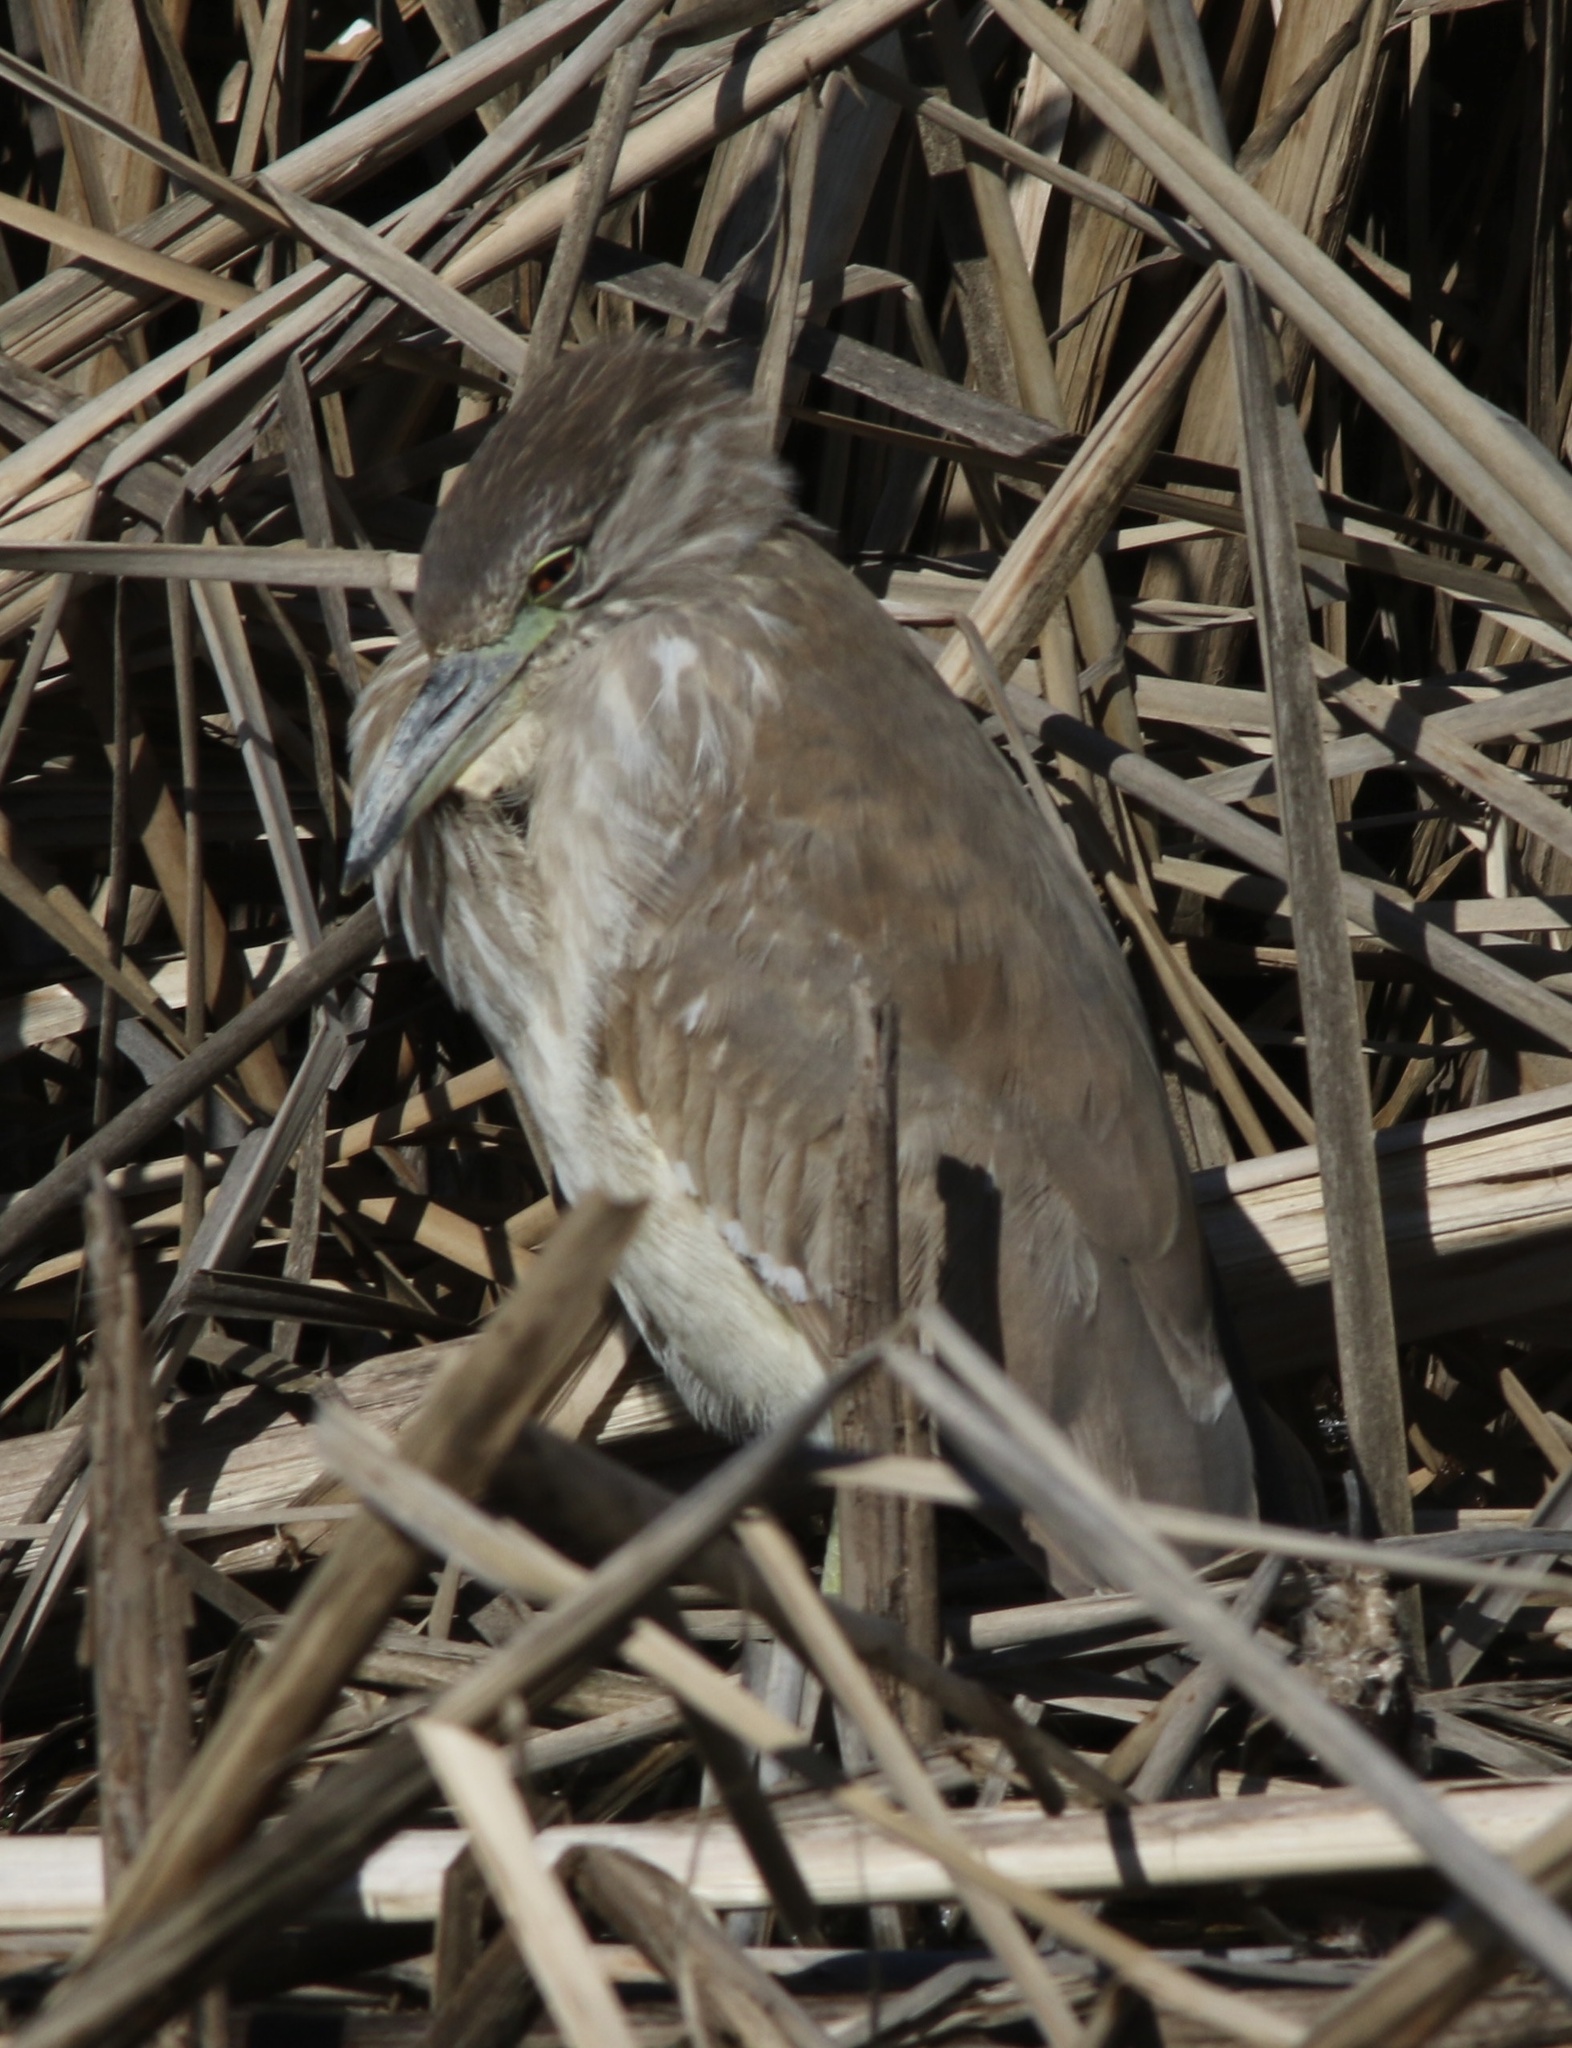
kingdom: Animalia
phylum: Chordata
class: Aves
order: Pelecaniformes
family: Ardeidae
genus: Nycticorax
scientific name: Nycticorax nycticorax
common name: Black-crowned night heron
